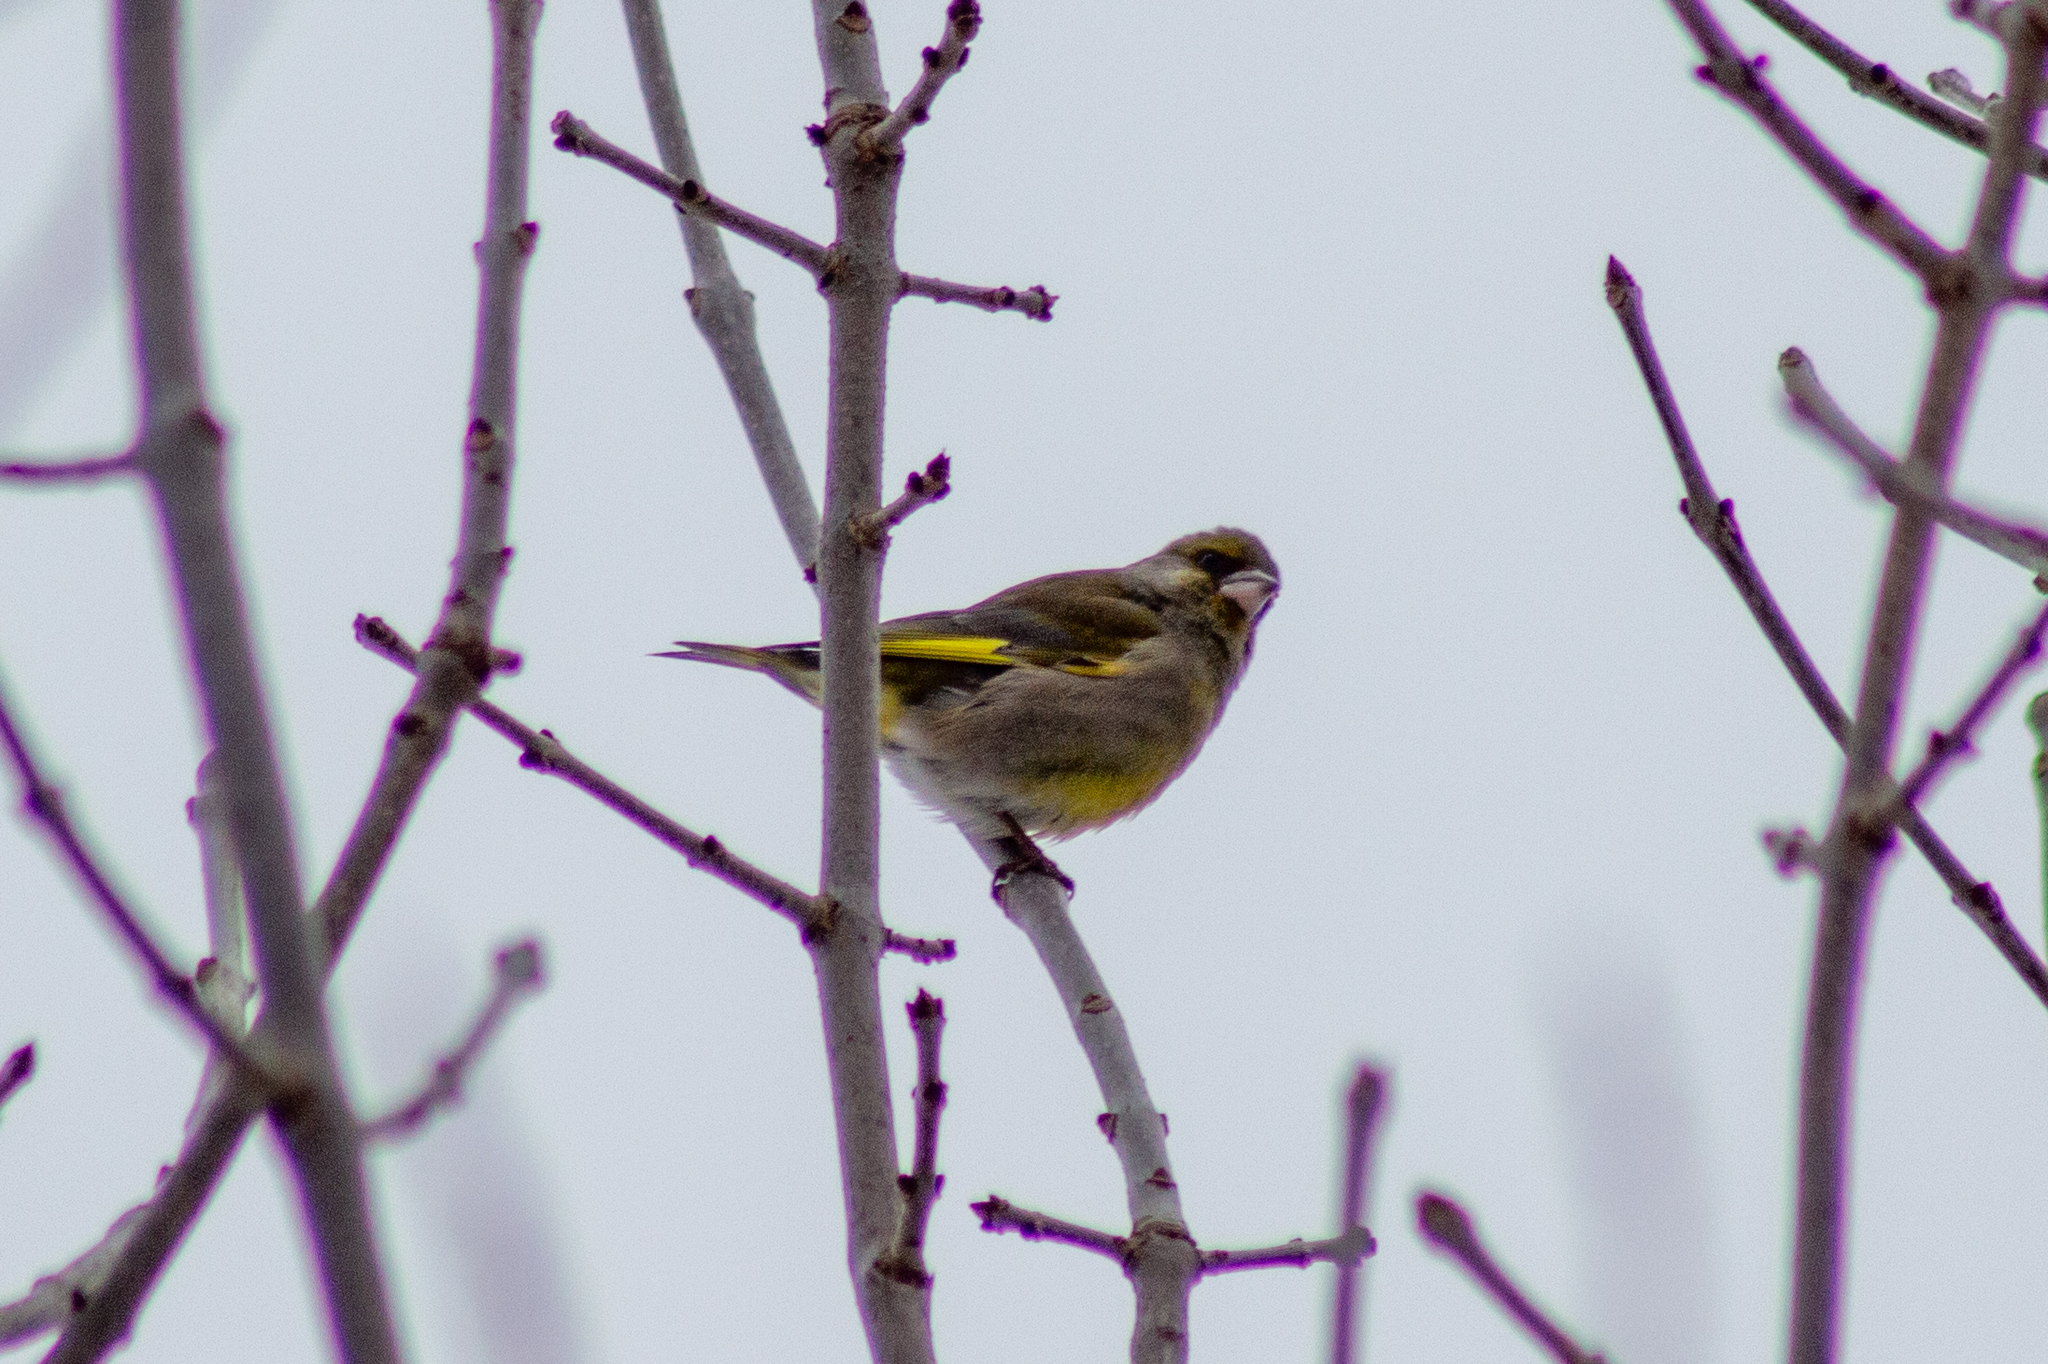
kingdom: Plantae
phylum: Tracheophyta
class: Liliopsida
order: Poales
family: Poaceae
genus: Chloris
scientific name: Chloris chloris
